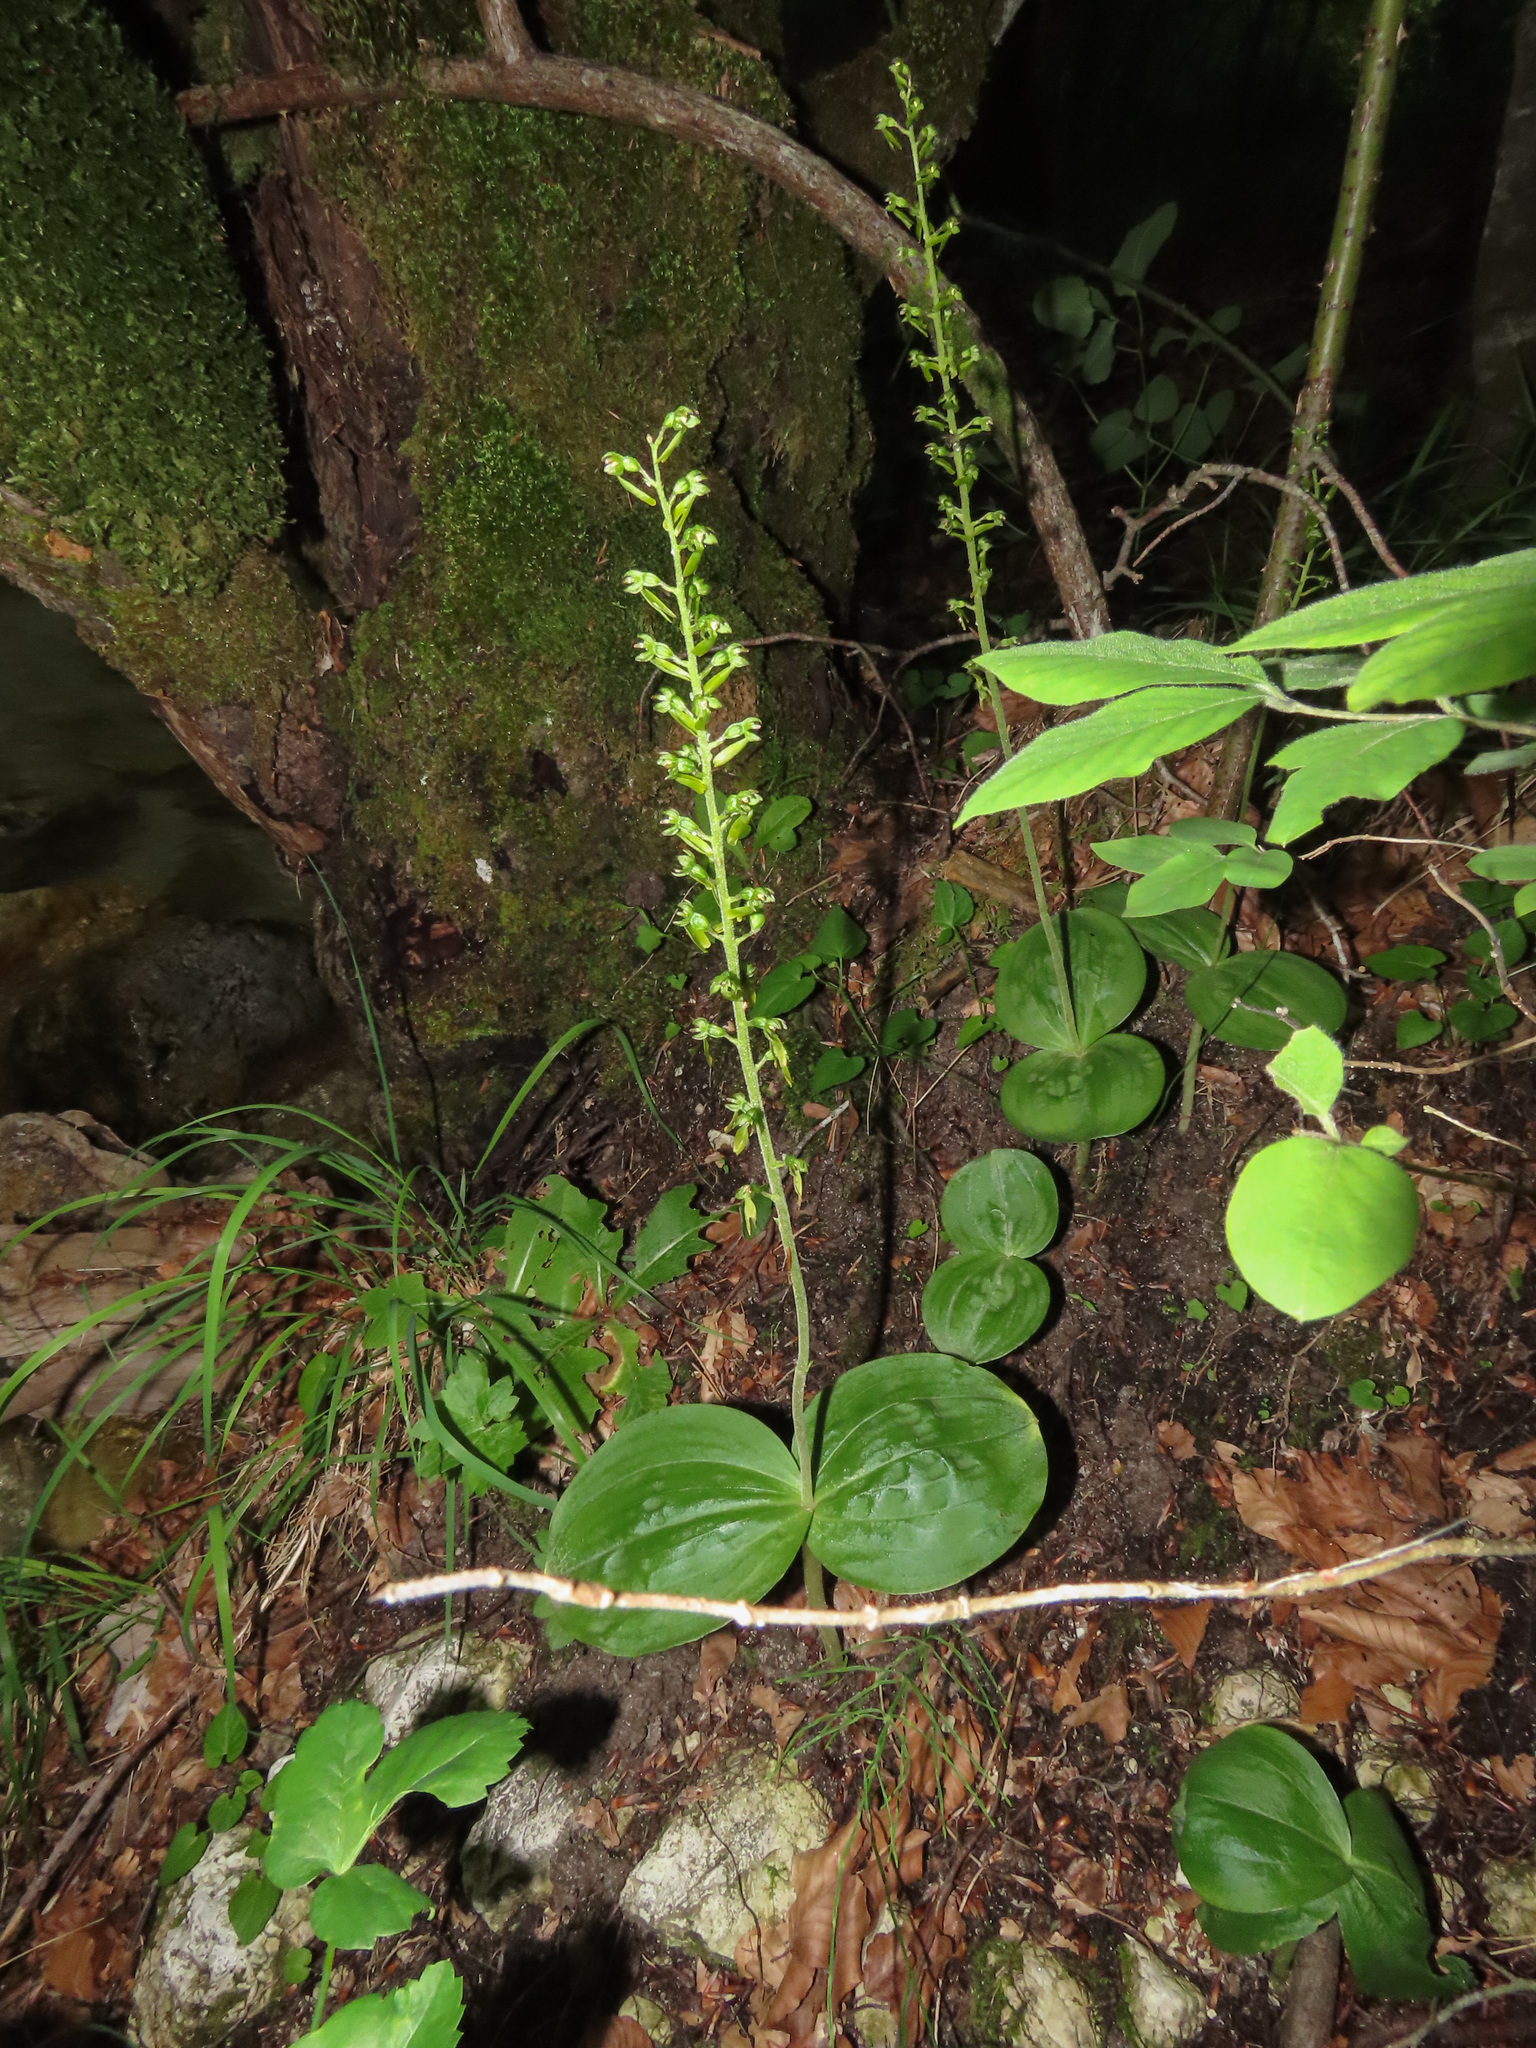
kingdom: Plantae
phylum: Tracheophyta
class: Liliopsida
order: Asparagales
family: Orchidaceae
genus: Neottia
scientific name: Neottia ovata
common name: Common twayblade
